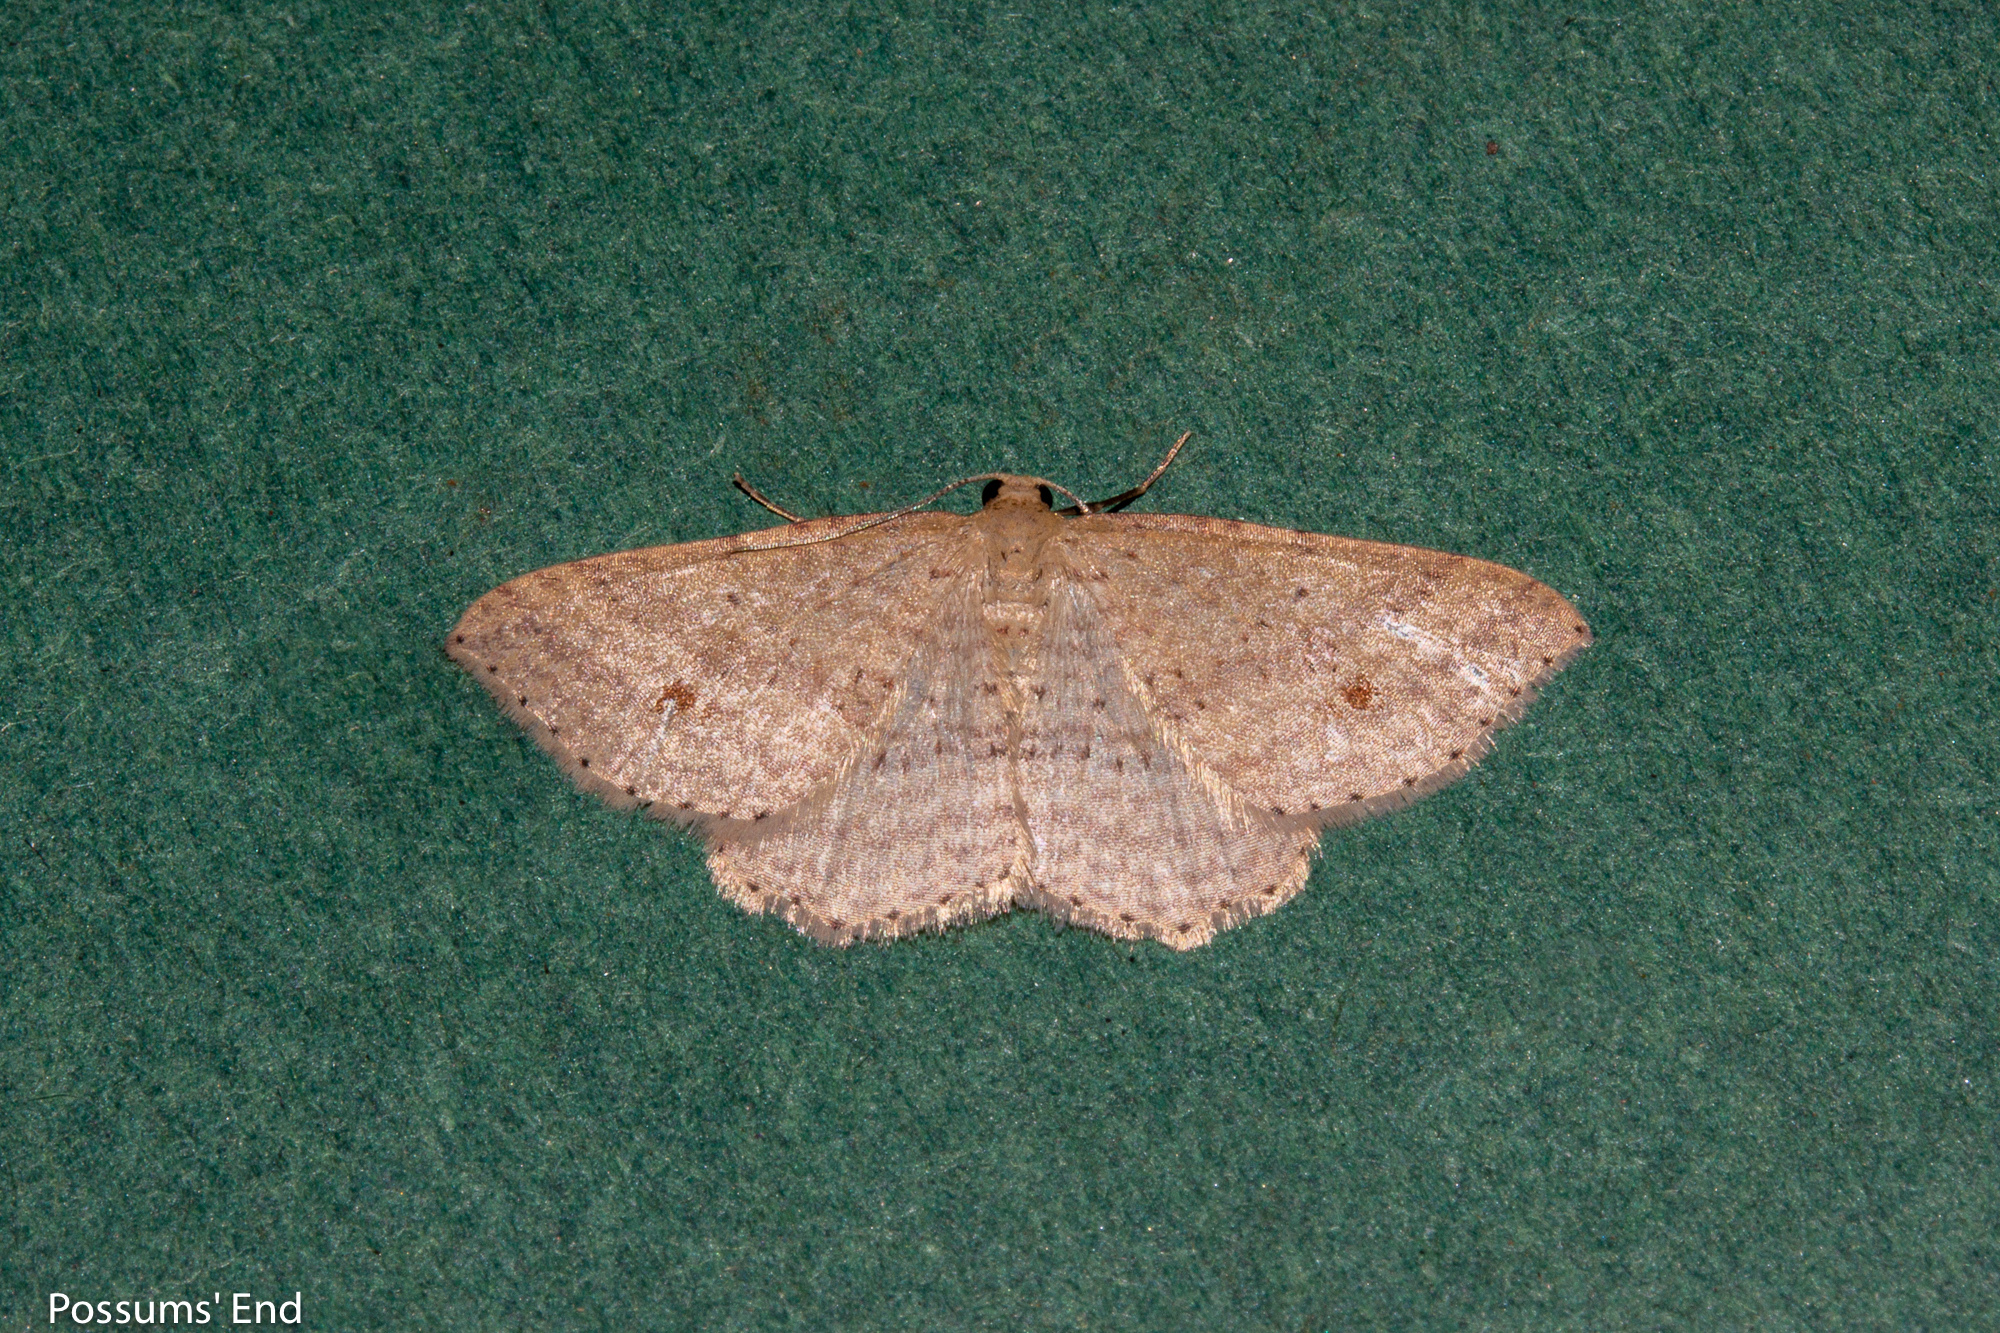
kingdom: Animalia
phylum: Arthropoda
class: Insecta
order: Lepidoptera
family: Geometridae
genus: Epicyme
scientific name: Epicyme rubropunctaria
